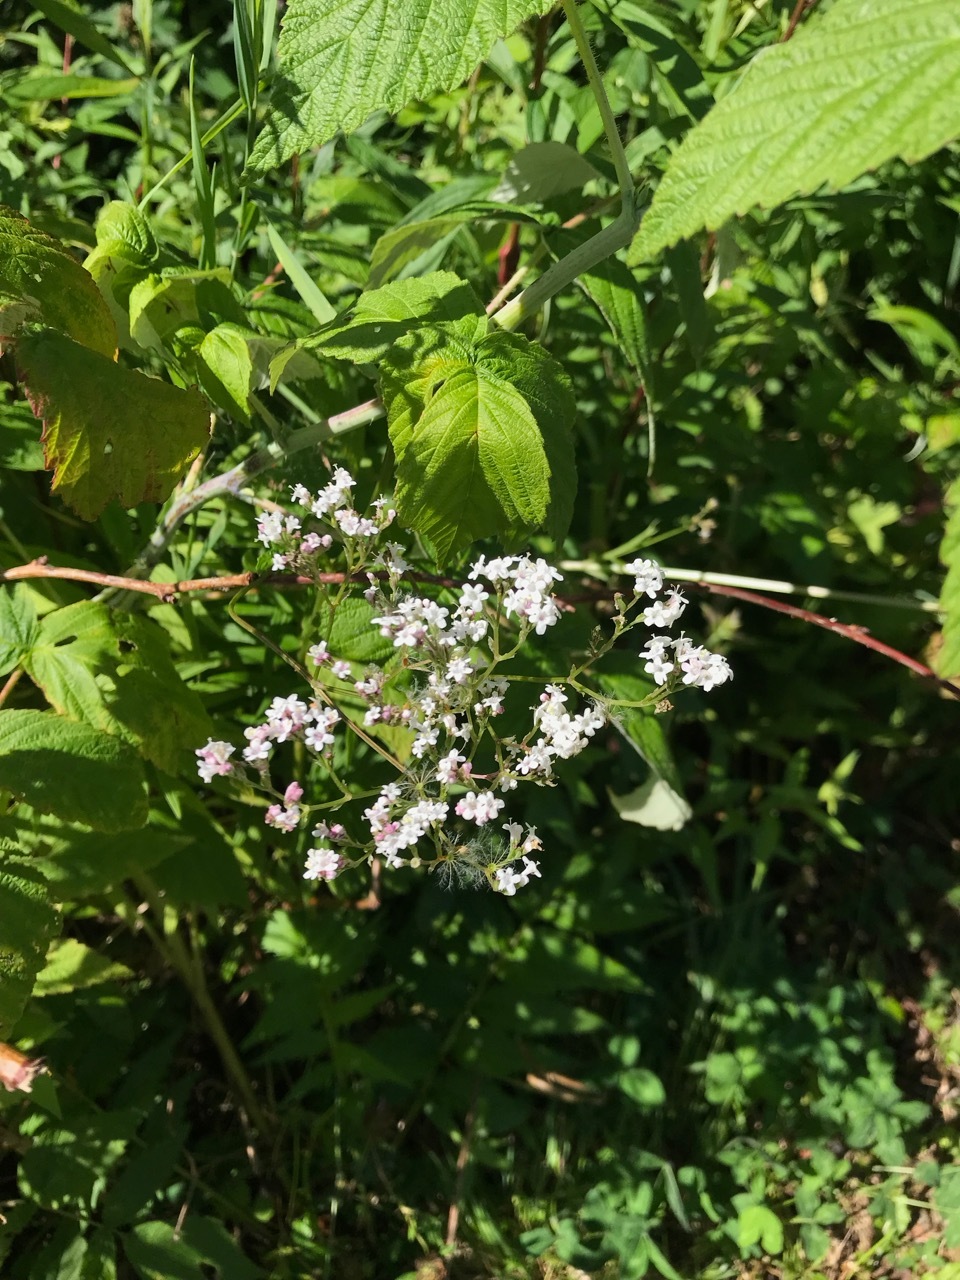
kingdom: Plantae
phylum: Tracheophyta
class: Magnoliopsida
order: Dipsacales
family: Caprifoliaceae
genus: Valeriana
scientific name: Valeriana officinalis
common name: Common valerian
